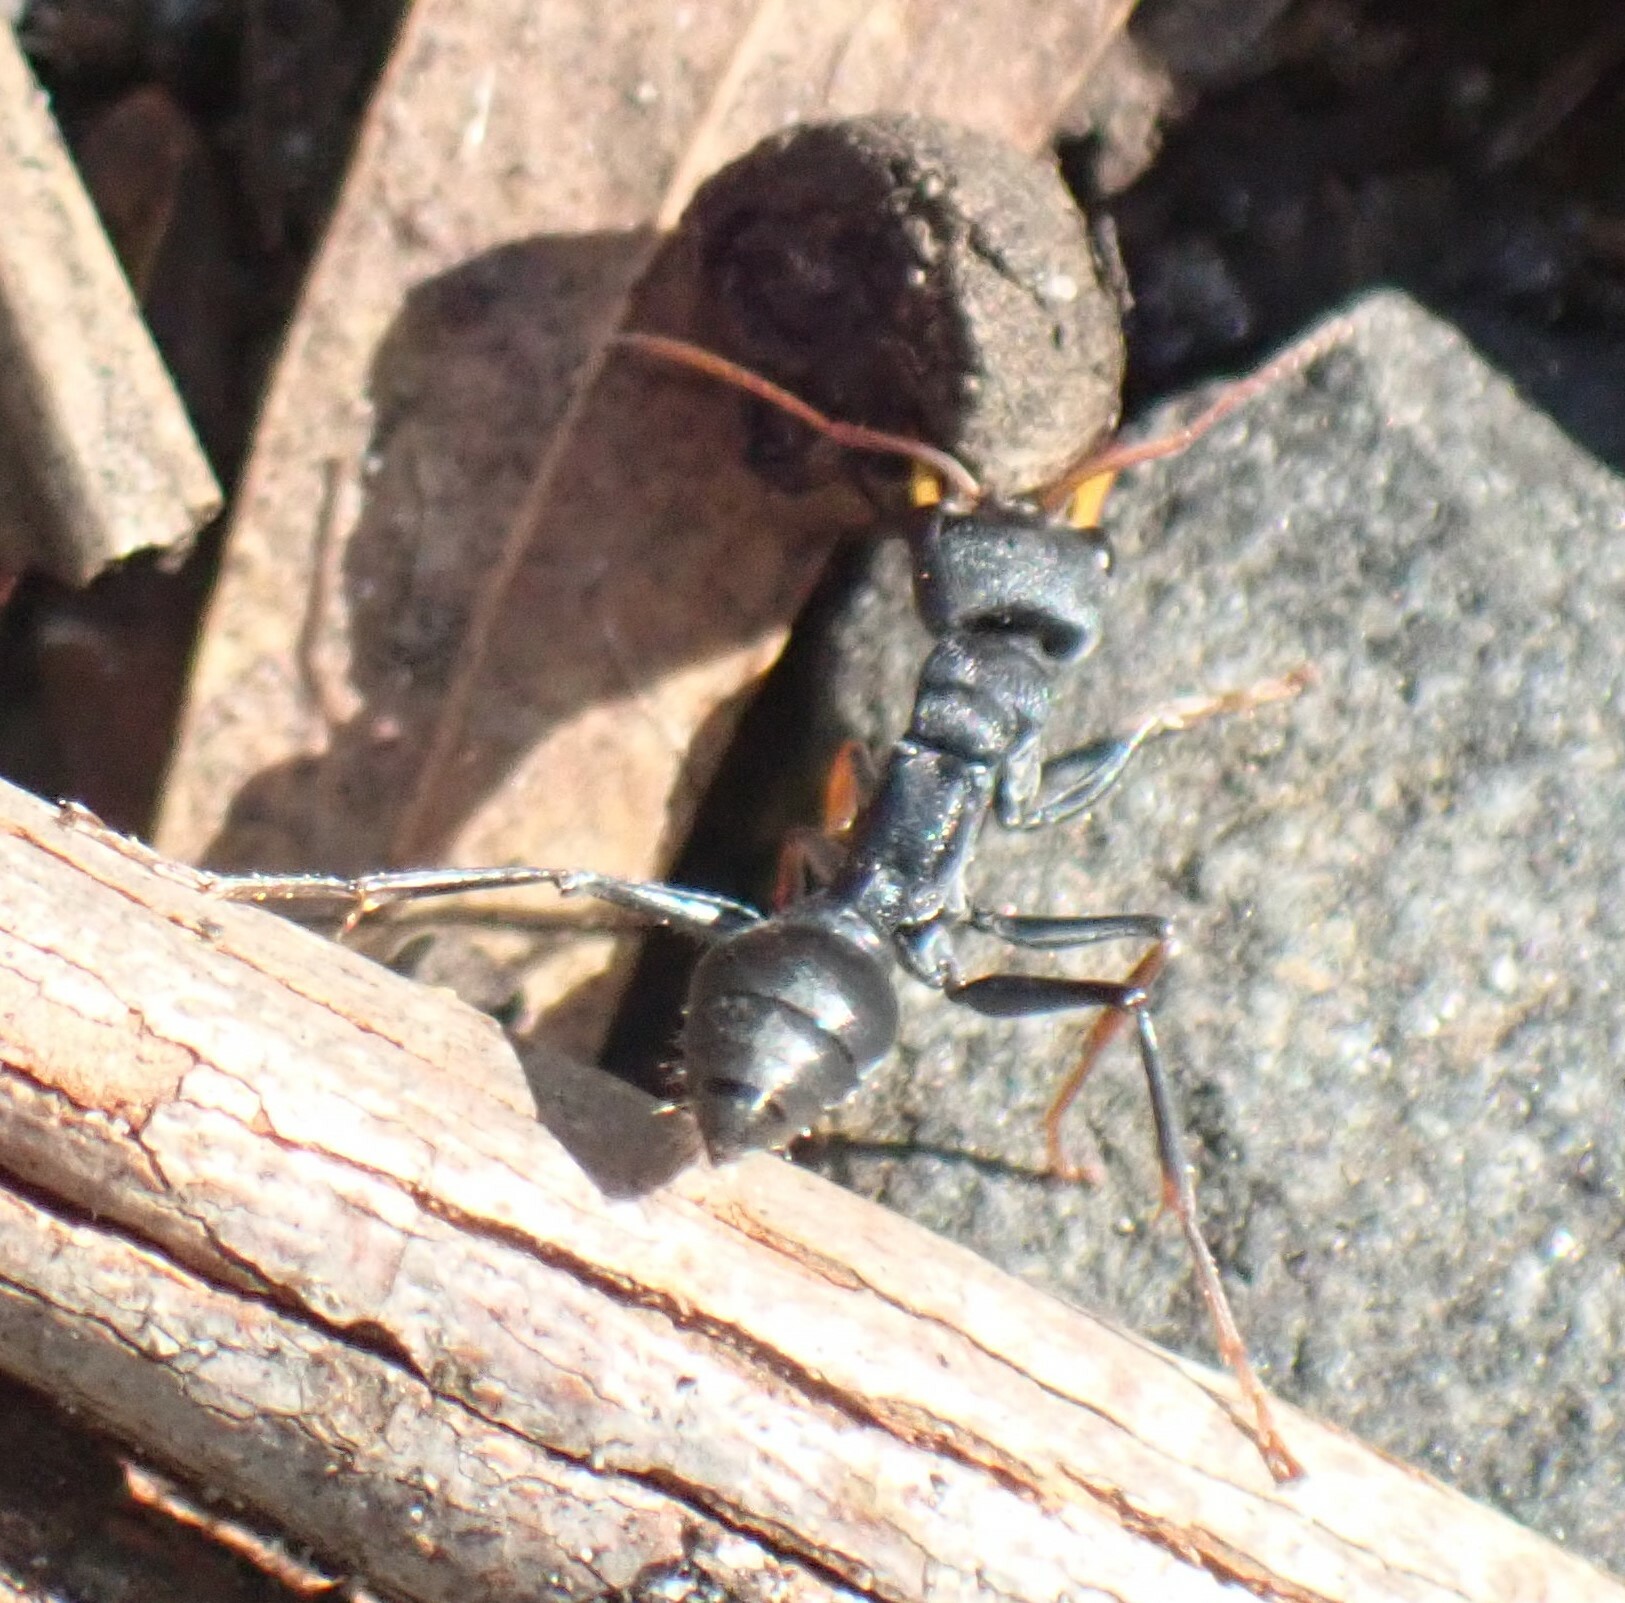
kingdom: Animalia
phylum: Arthropoda
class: Insecta
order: Hymenoptera
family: Formicidae
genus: Myrmecia
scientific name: Myrmecia pilosula
